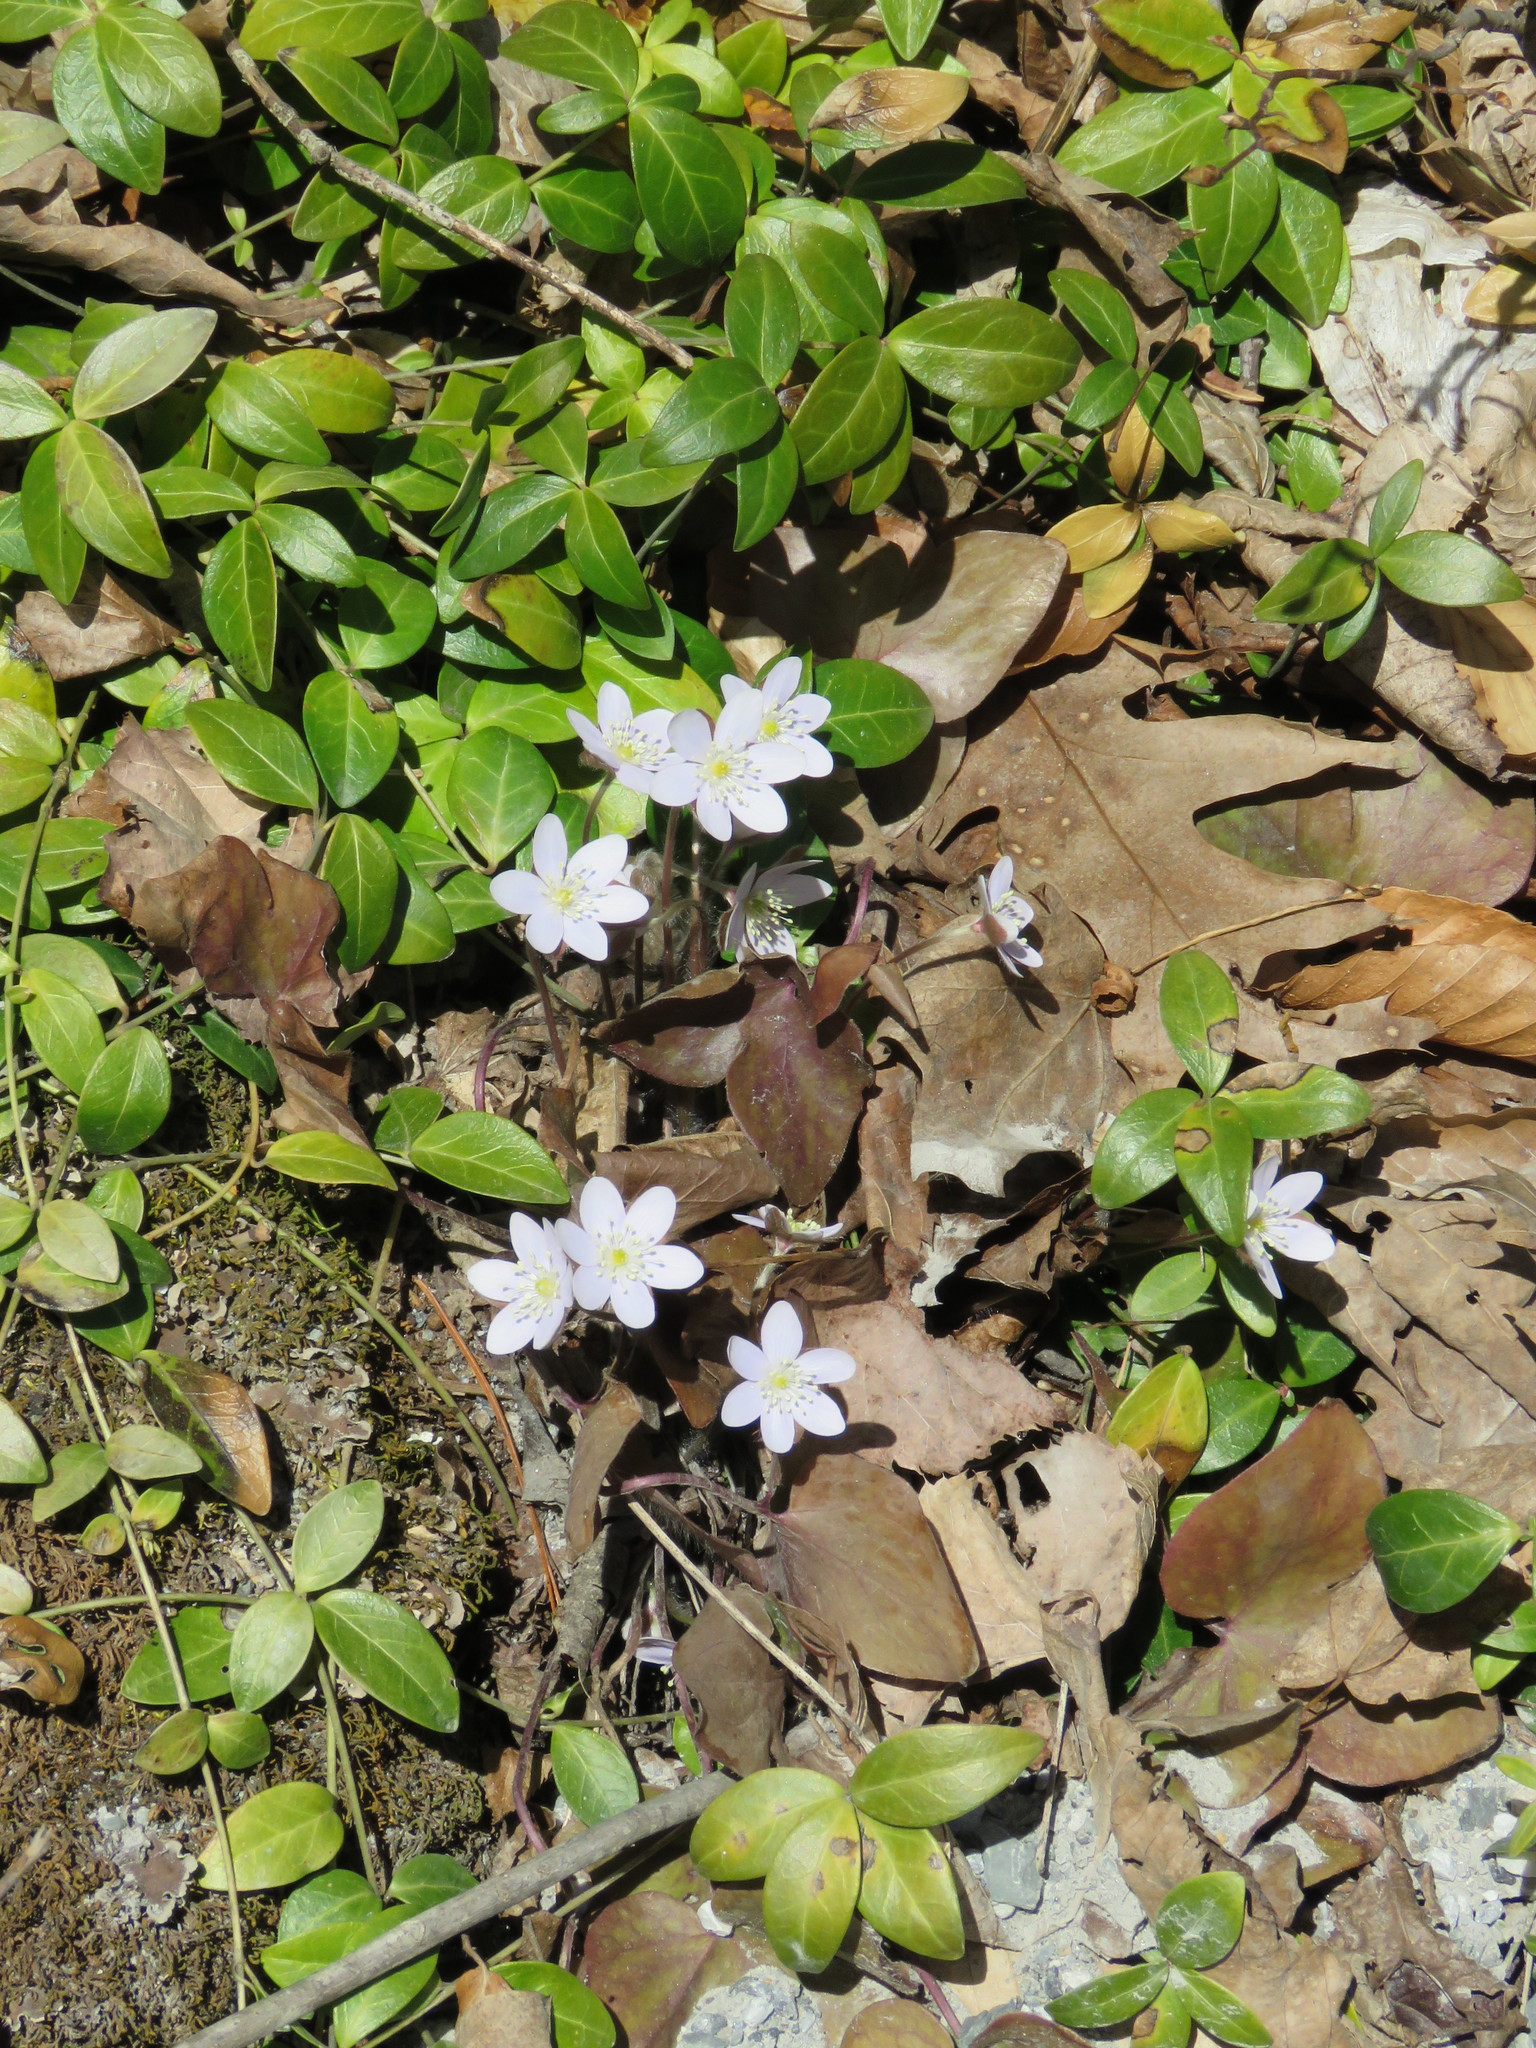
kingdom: Plantae
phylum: Tracheophyta
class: Magnoliopsida
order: Ranunculales
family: Ranunculaceae
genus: Hepatica
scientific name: Hepatica acutiloba
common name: Sharp-lobed hepatica
